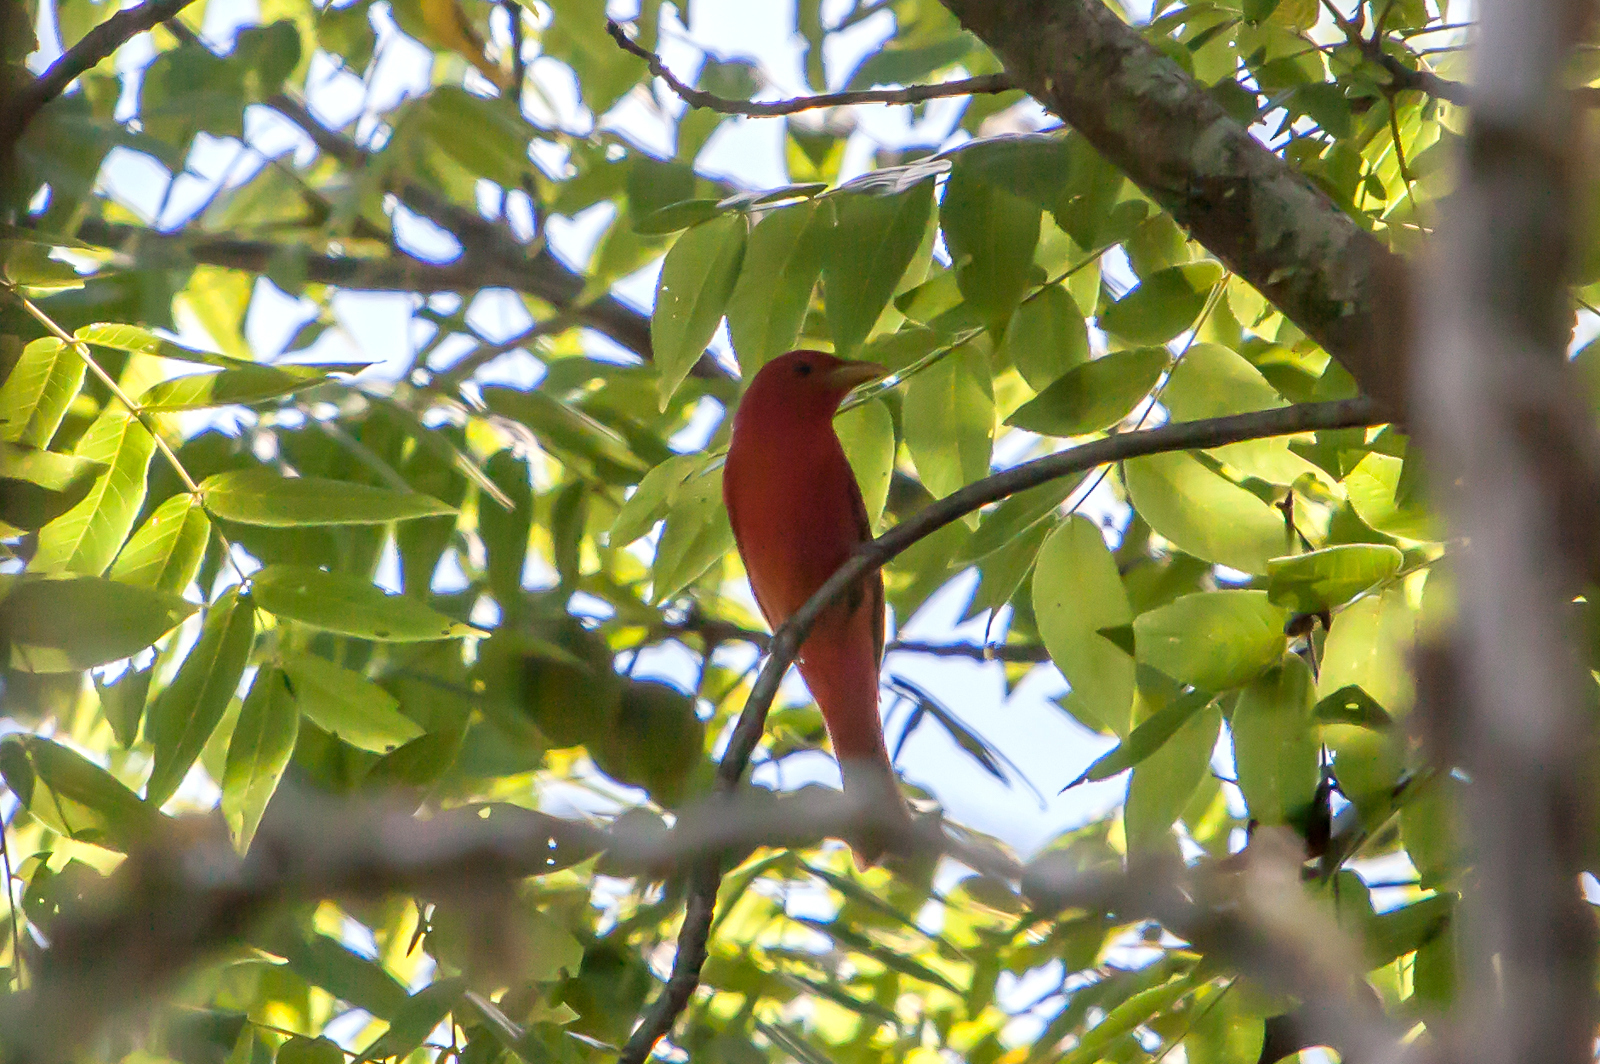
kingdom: Animalia
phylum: Chordata
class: Aves
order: Passeriformes
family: Cardinalidae
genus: Piranga
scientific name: Piranga rubra
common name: Summer tanager
